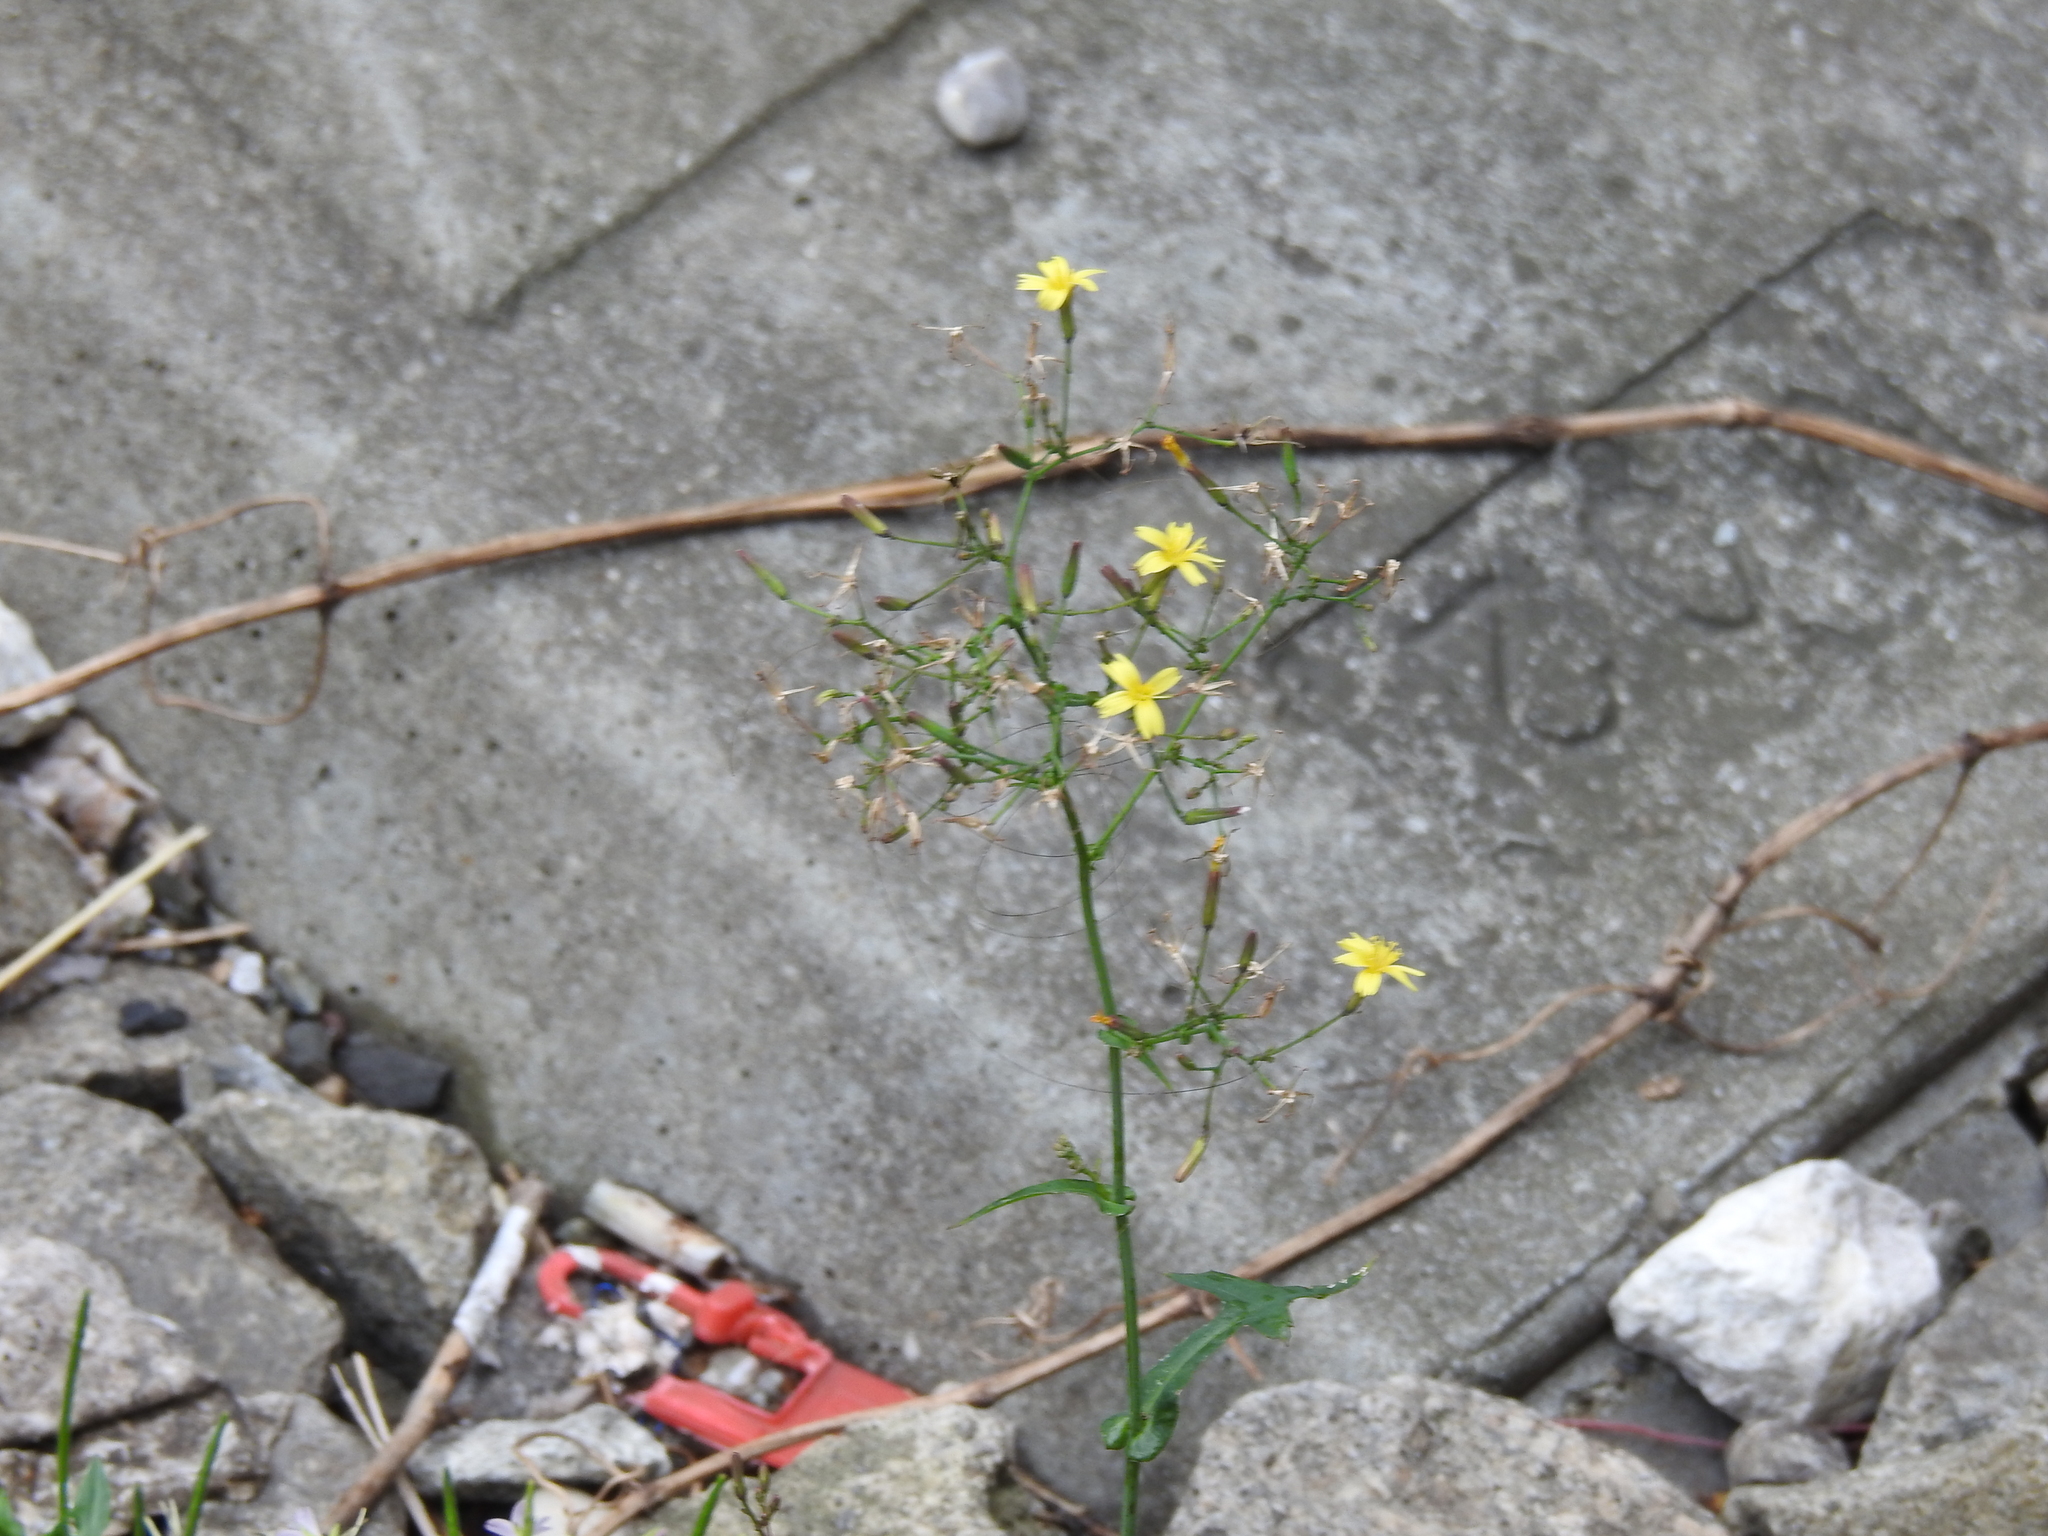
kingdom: Plantae
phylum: Tracheophyta
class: Magnoliopsida
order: Asterales
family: Asteraceae
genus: Mycelis
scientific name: Mycelis muralis
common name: Wall lettuce
